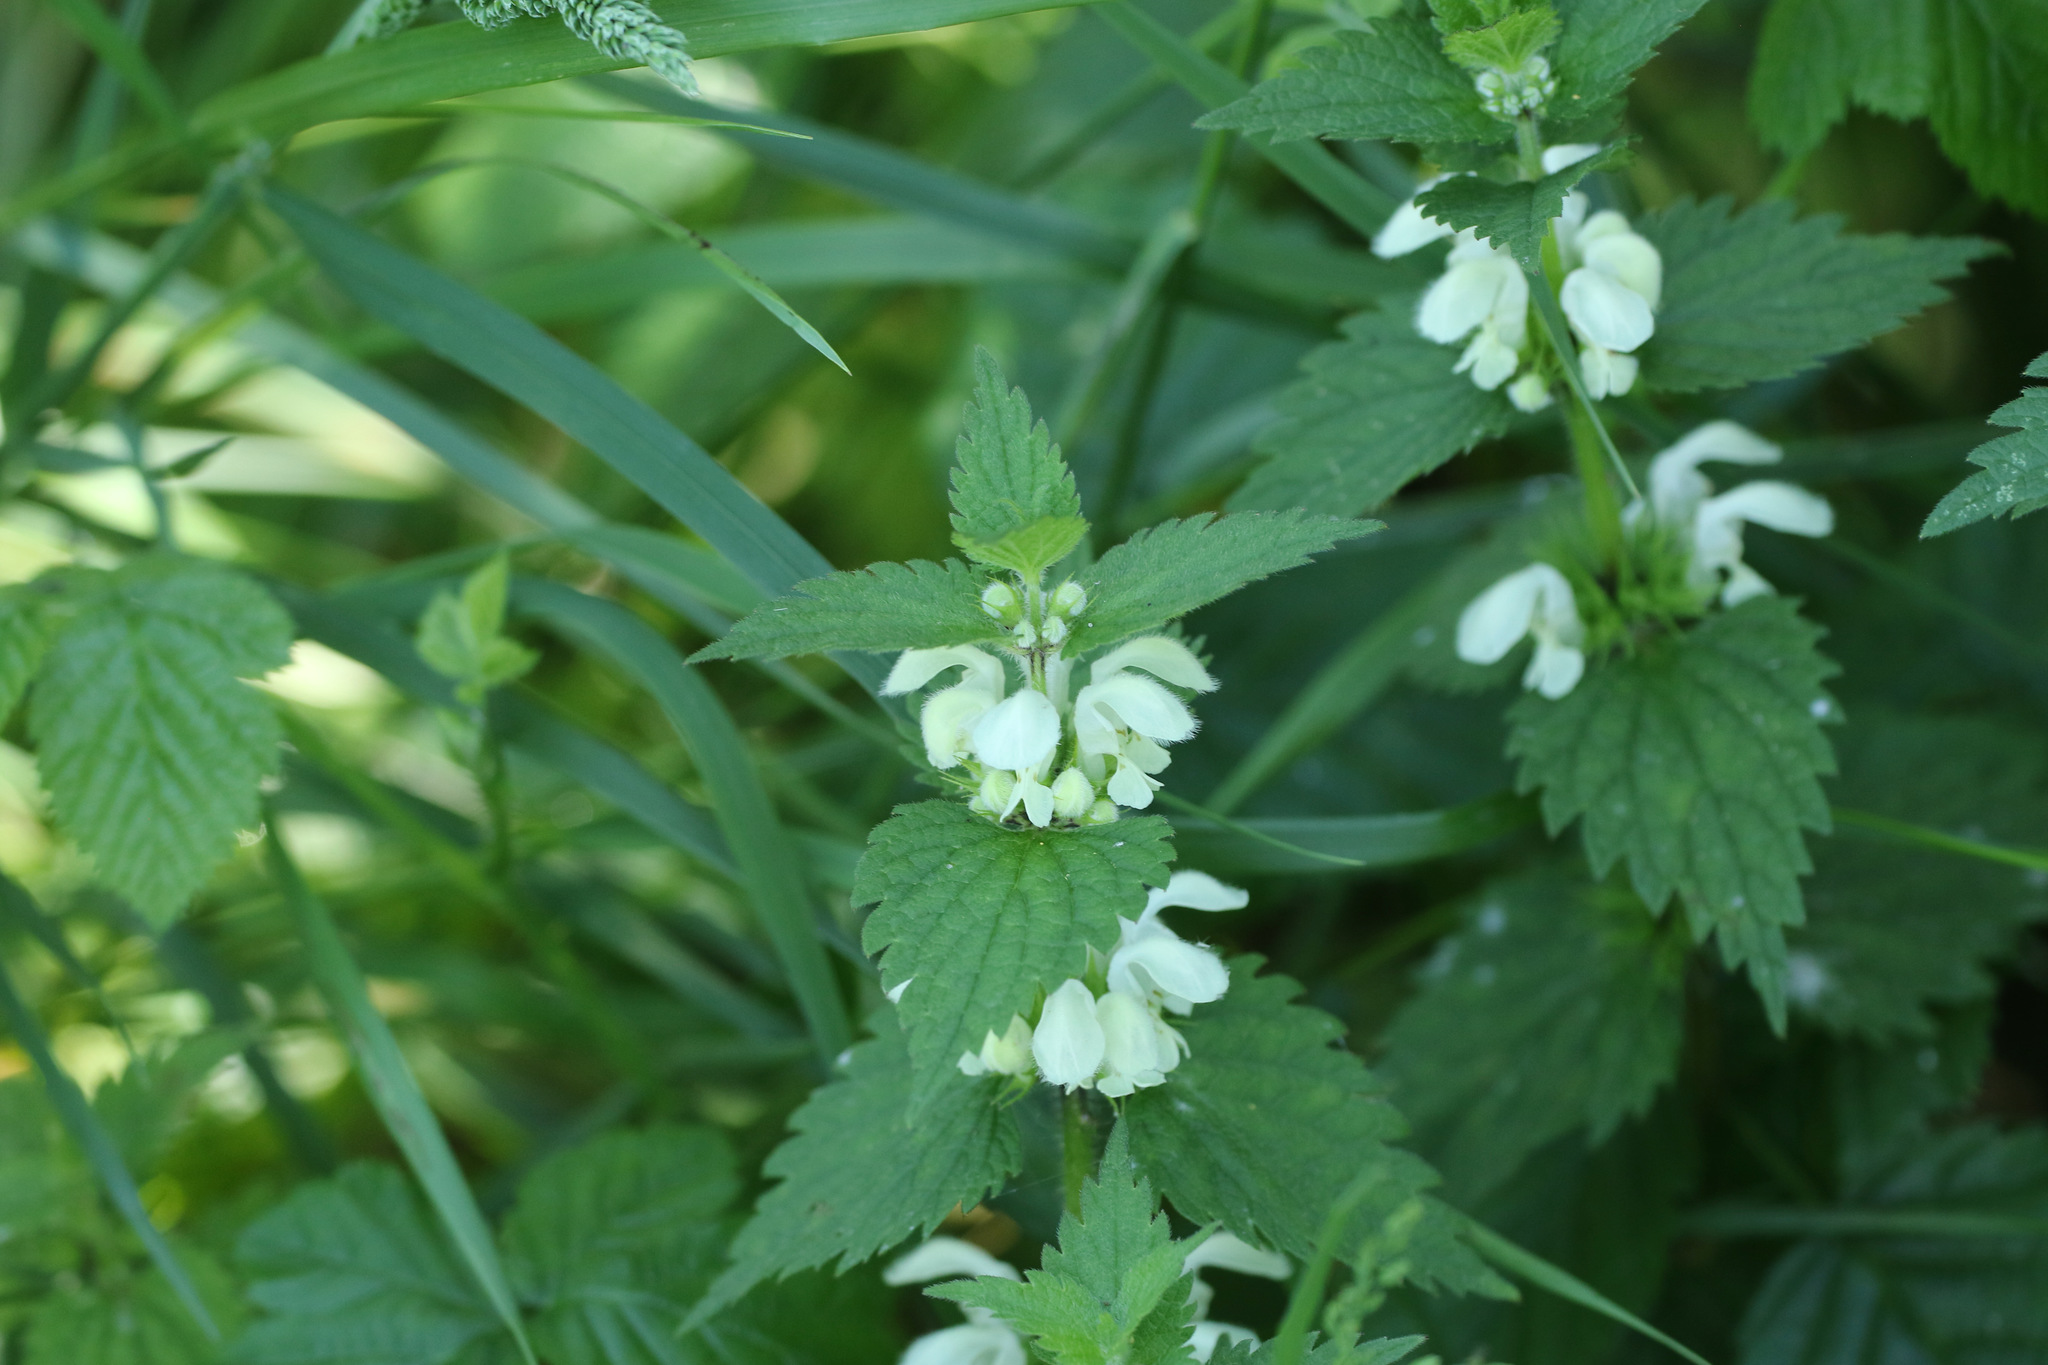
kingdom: Plantae
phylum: Tracheophyta
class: Magnoliopsida
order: Lamiales
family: Lamiaceae
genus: Lamium
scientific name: Lamium album
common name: White dead-nettle
